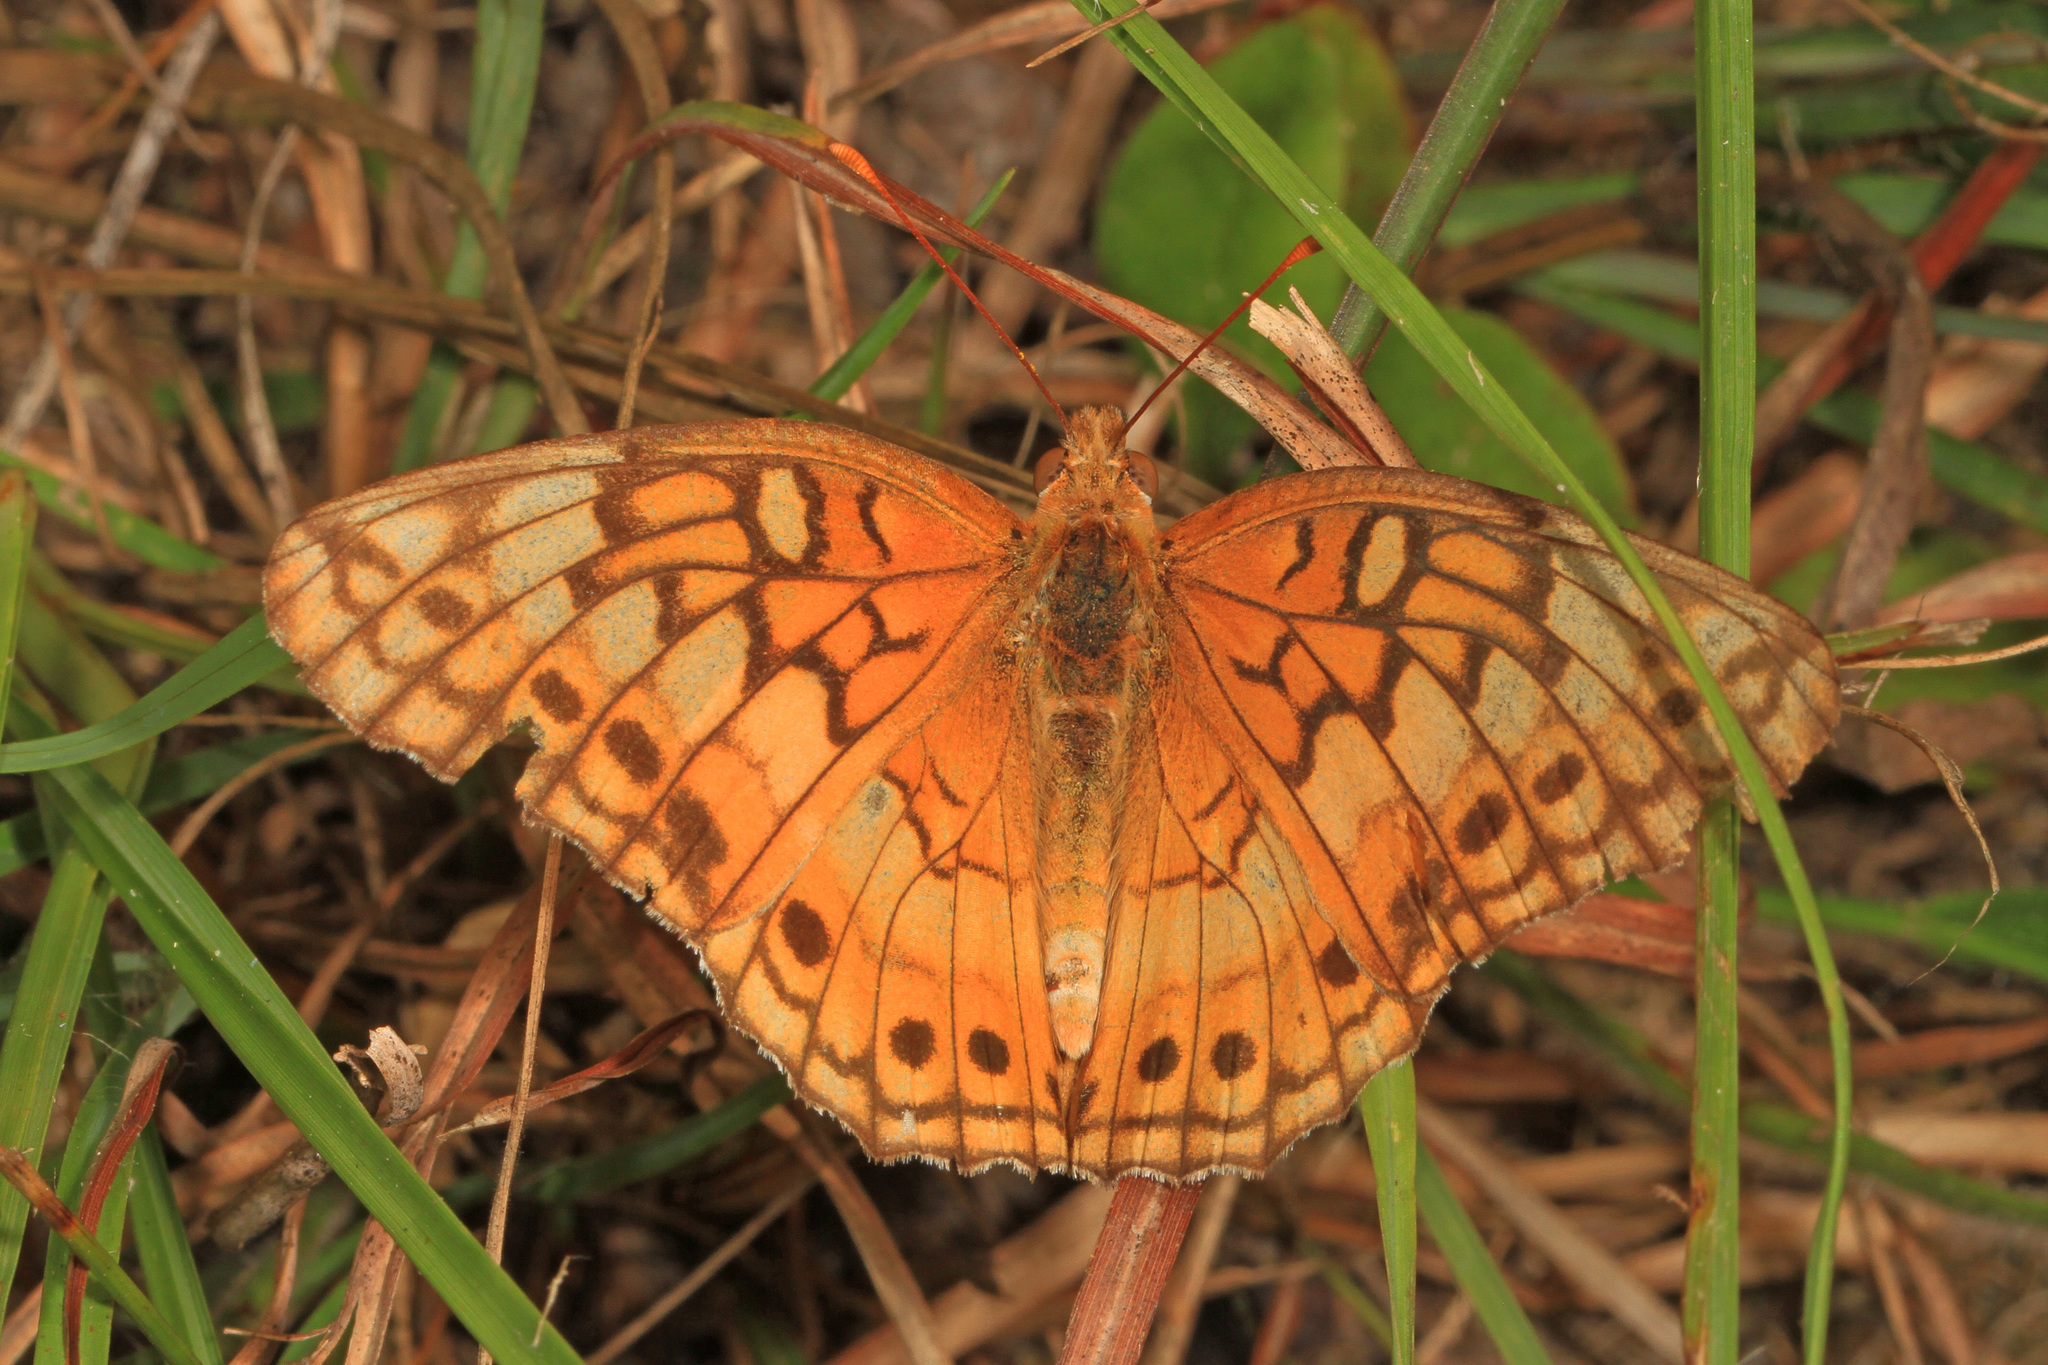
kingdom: Animalia
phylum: Arthropoda
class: Insecta
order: Lepidoptera
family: Nymphalidae
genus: Euptoieta
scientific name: Euptoieta claudia
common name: Variegated fritillary
